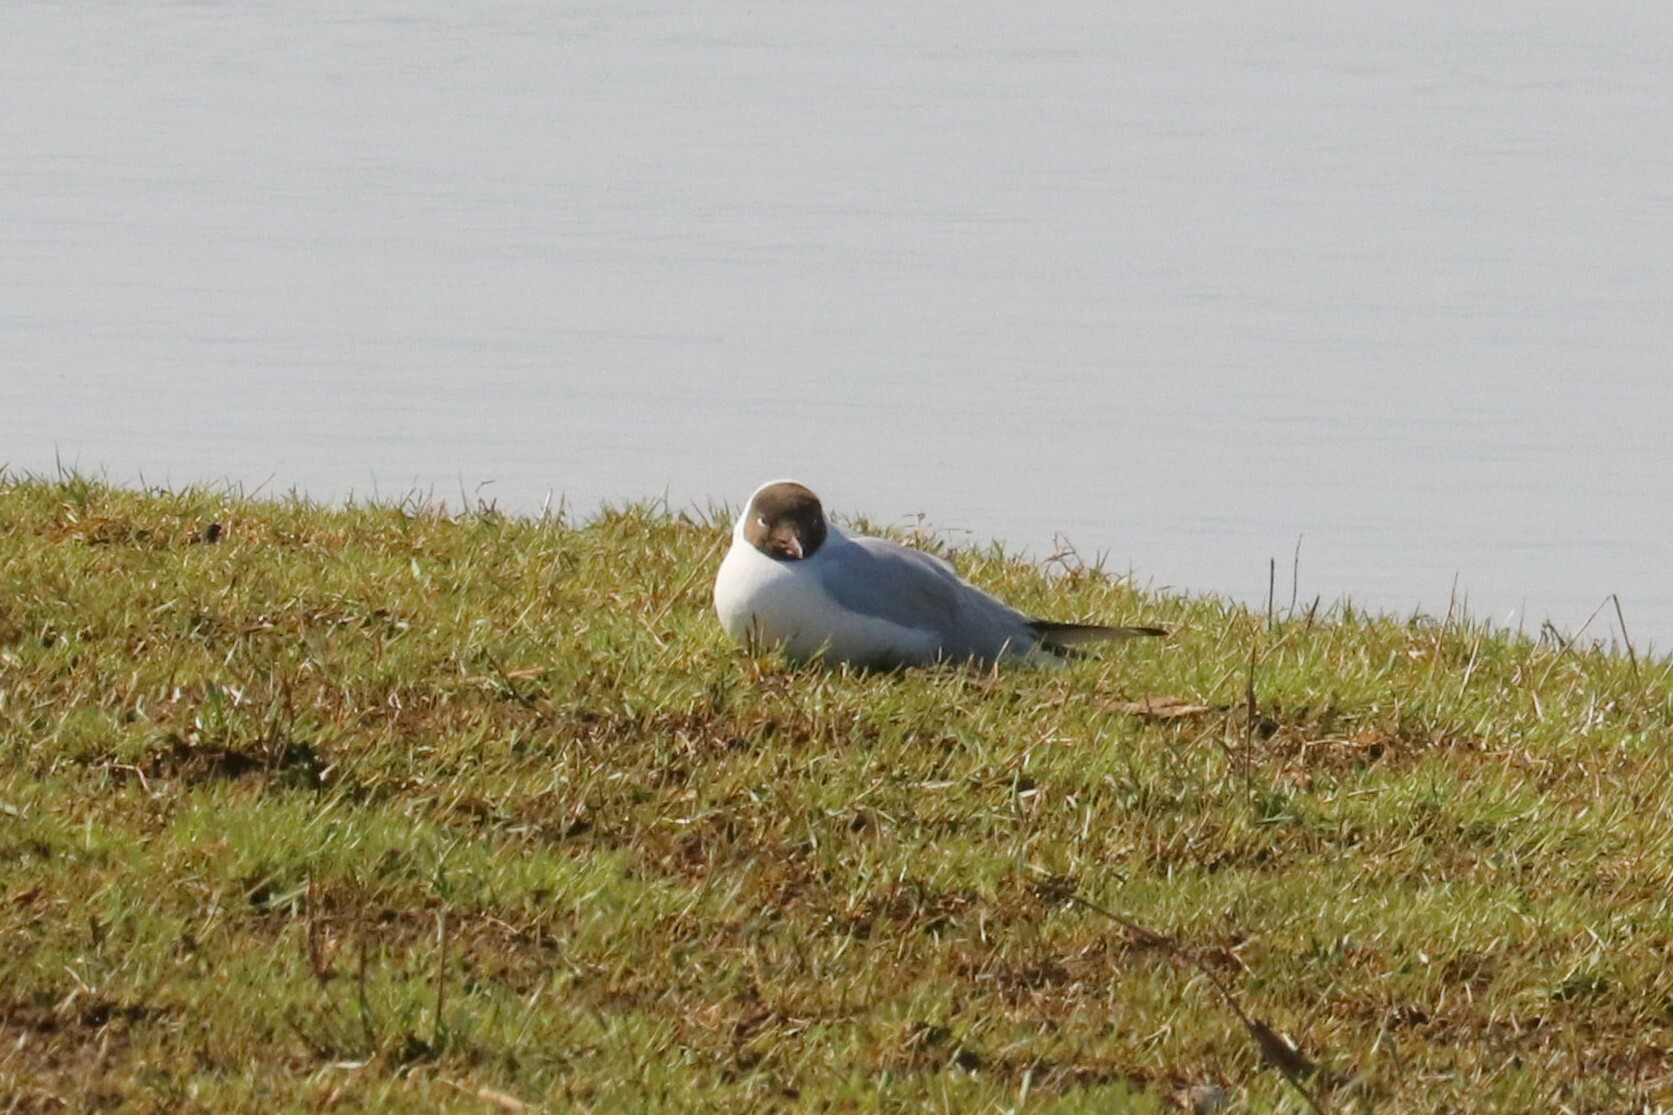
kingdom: Animalia
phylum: Chordata
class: Aves
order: Charadriiformes
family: Laridae
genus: Chroicocephalus
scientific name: Chroicocephalus ridibundus
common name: Black-headed gull
